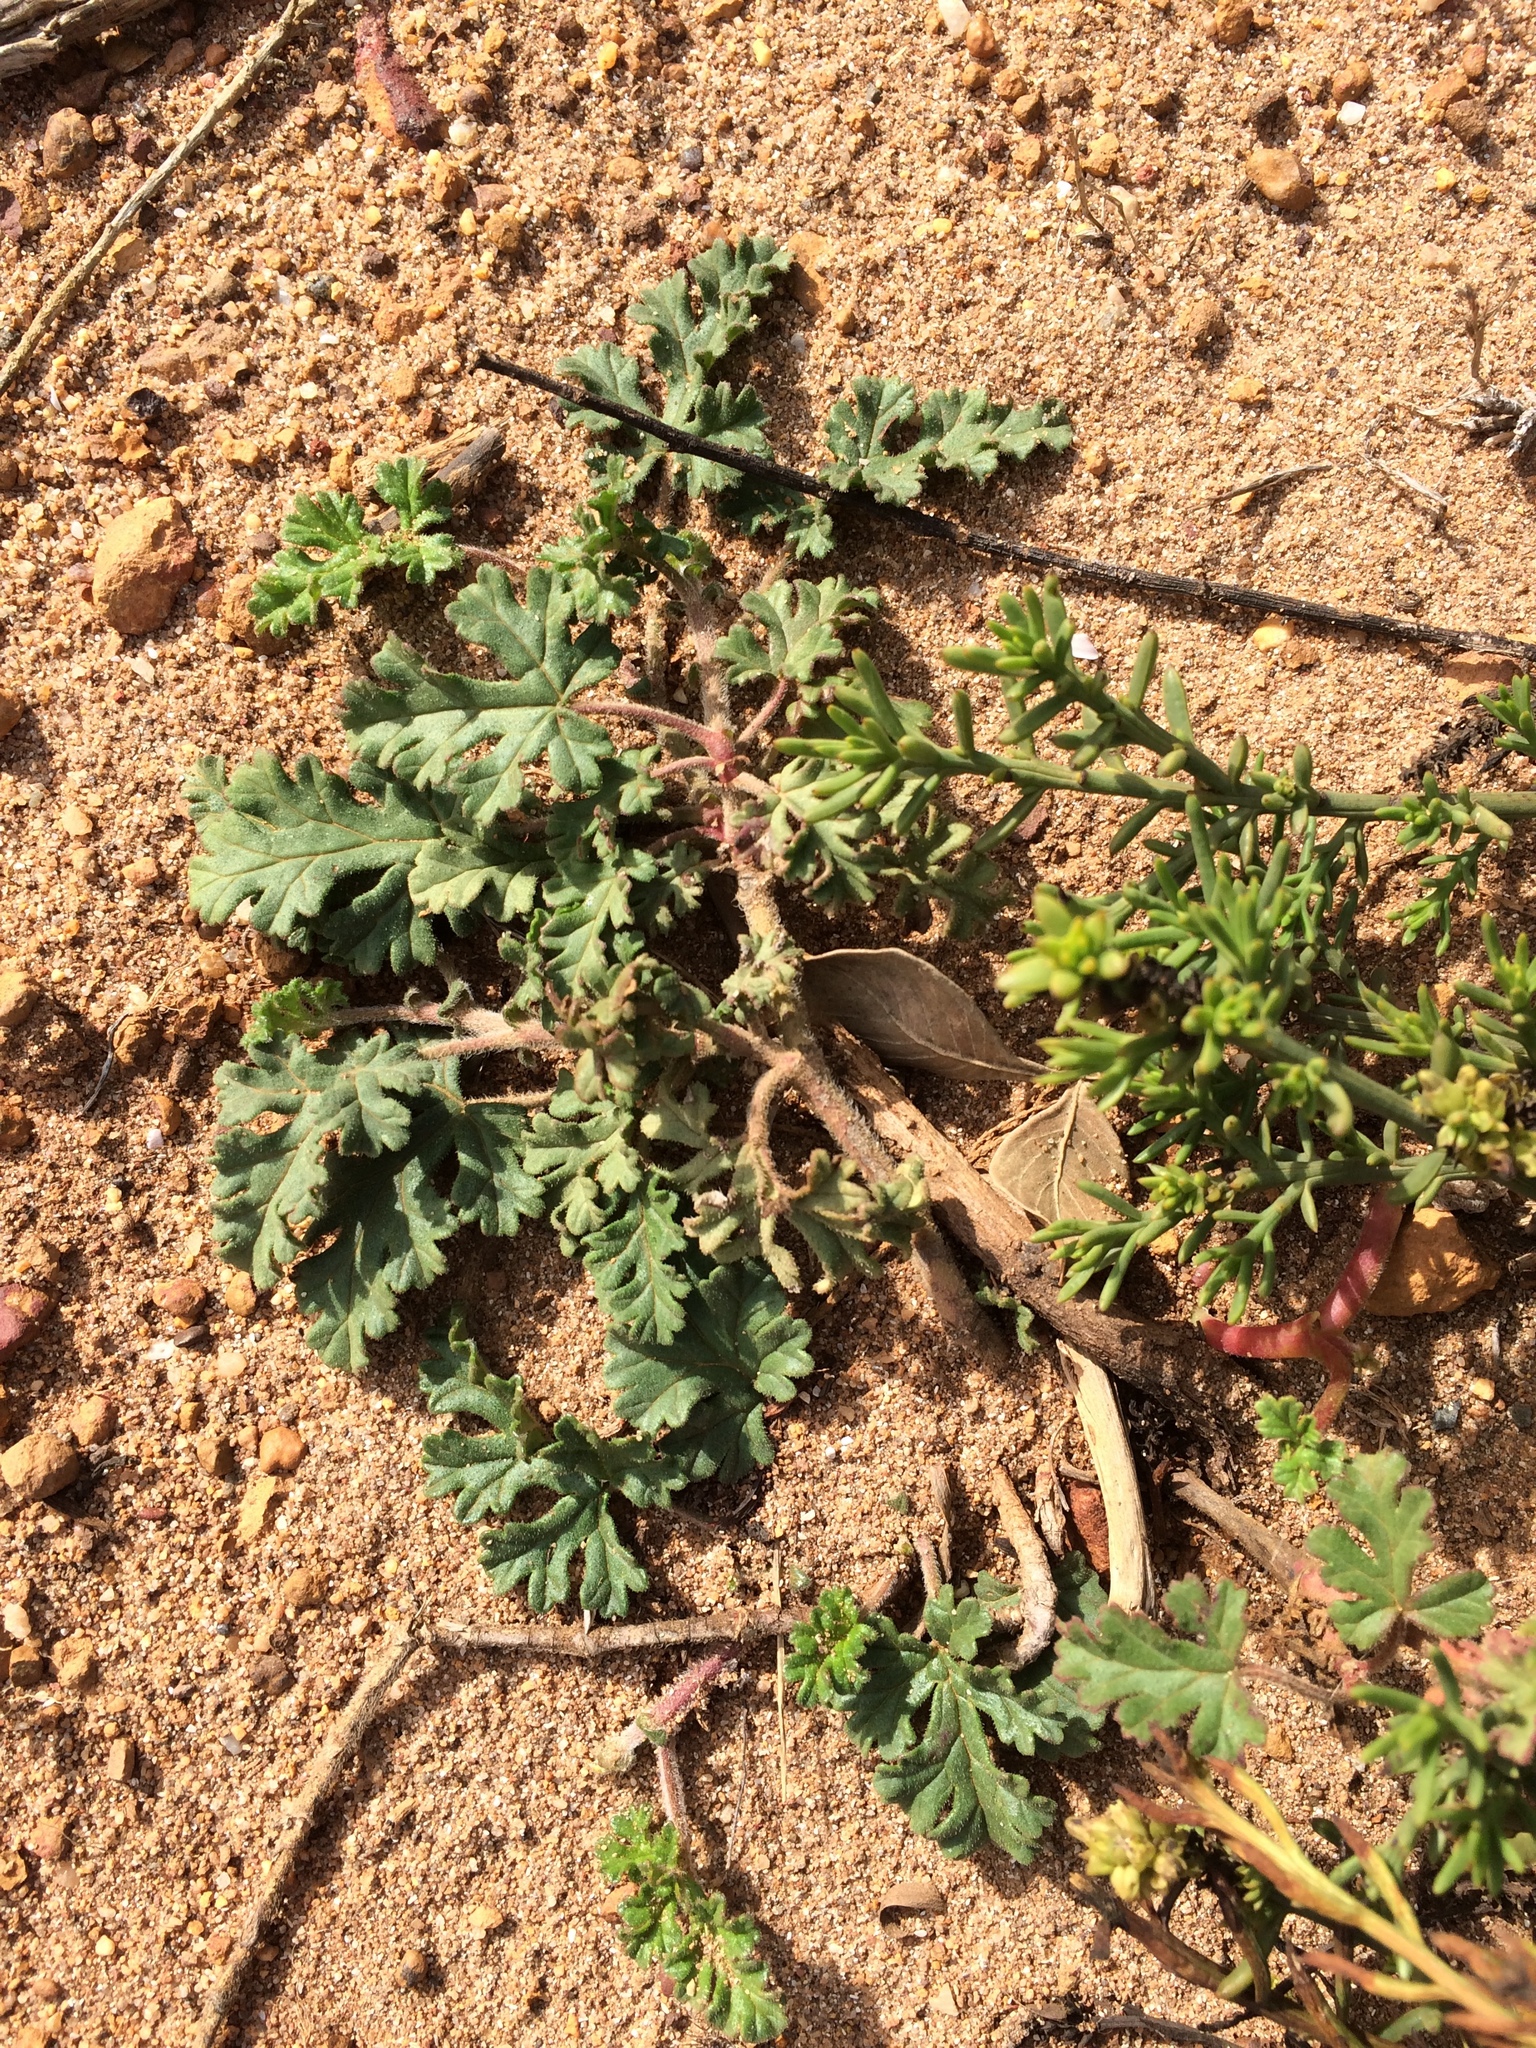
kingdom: Plantae
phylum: Tracheophyta
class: Magnoliopsida
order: Geraniales
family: Geraniaceae
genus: Pelargonium
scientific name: Pelargonium candicans
